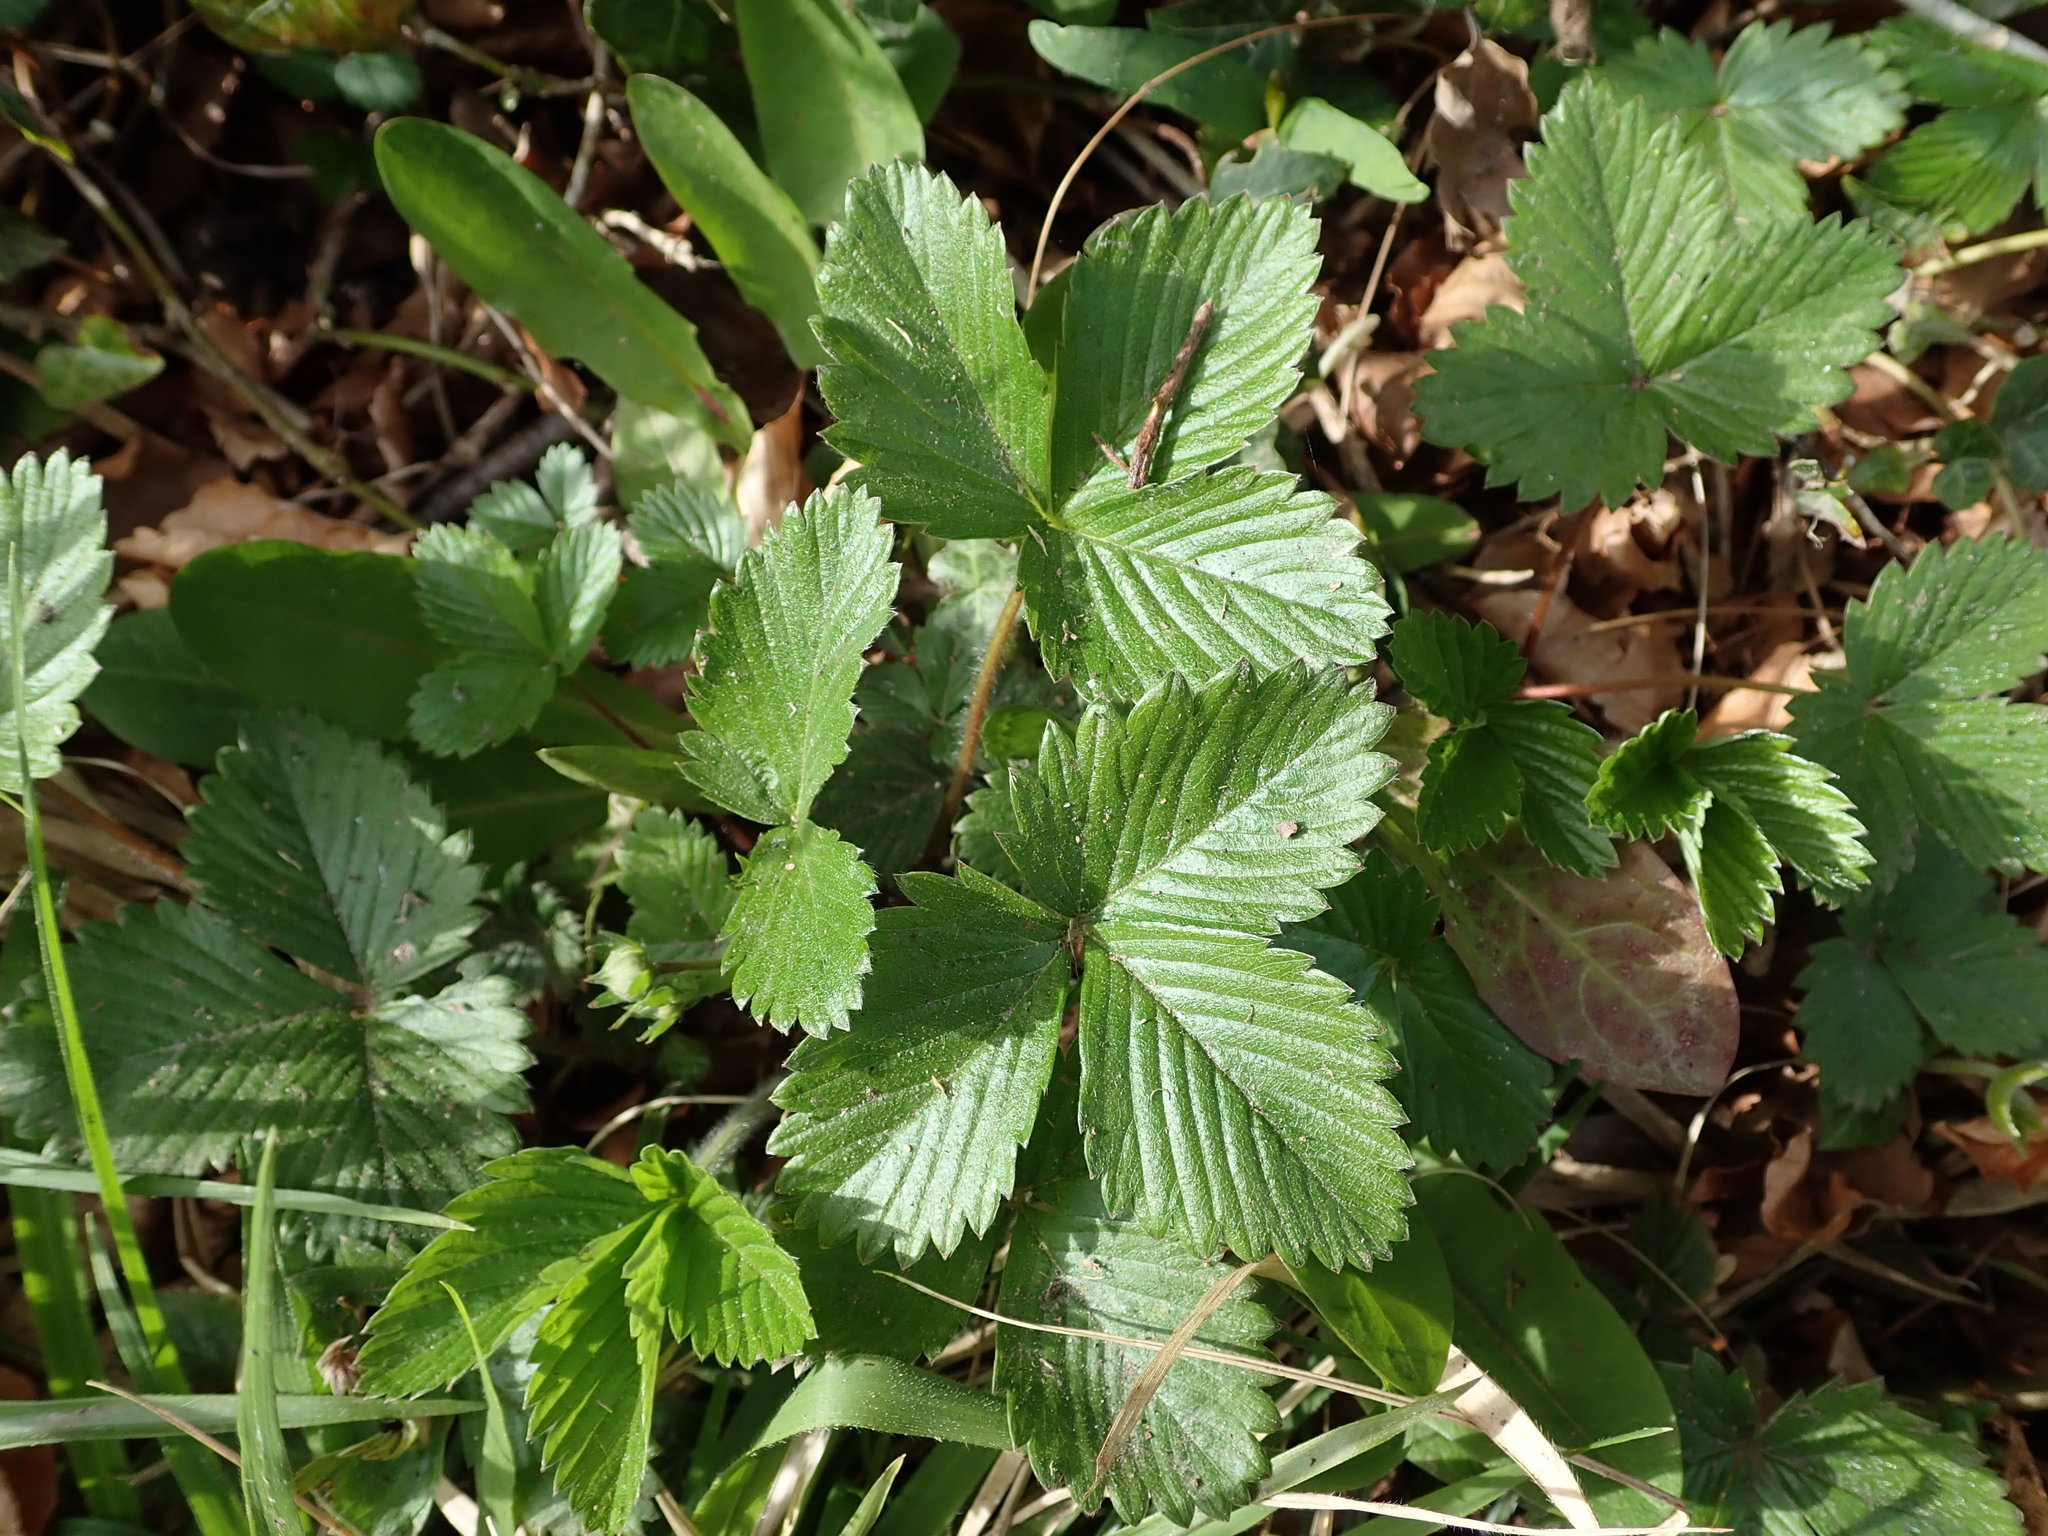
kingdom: Plantae
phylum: Tracheophyta
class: Magnoliopsida
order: Rosales
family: Rosaceae
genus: Fragaria
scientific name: Fragaria vesca
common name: Wild strawberry
